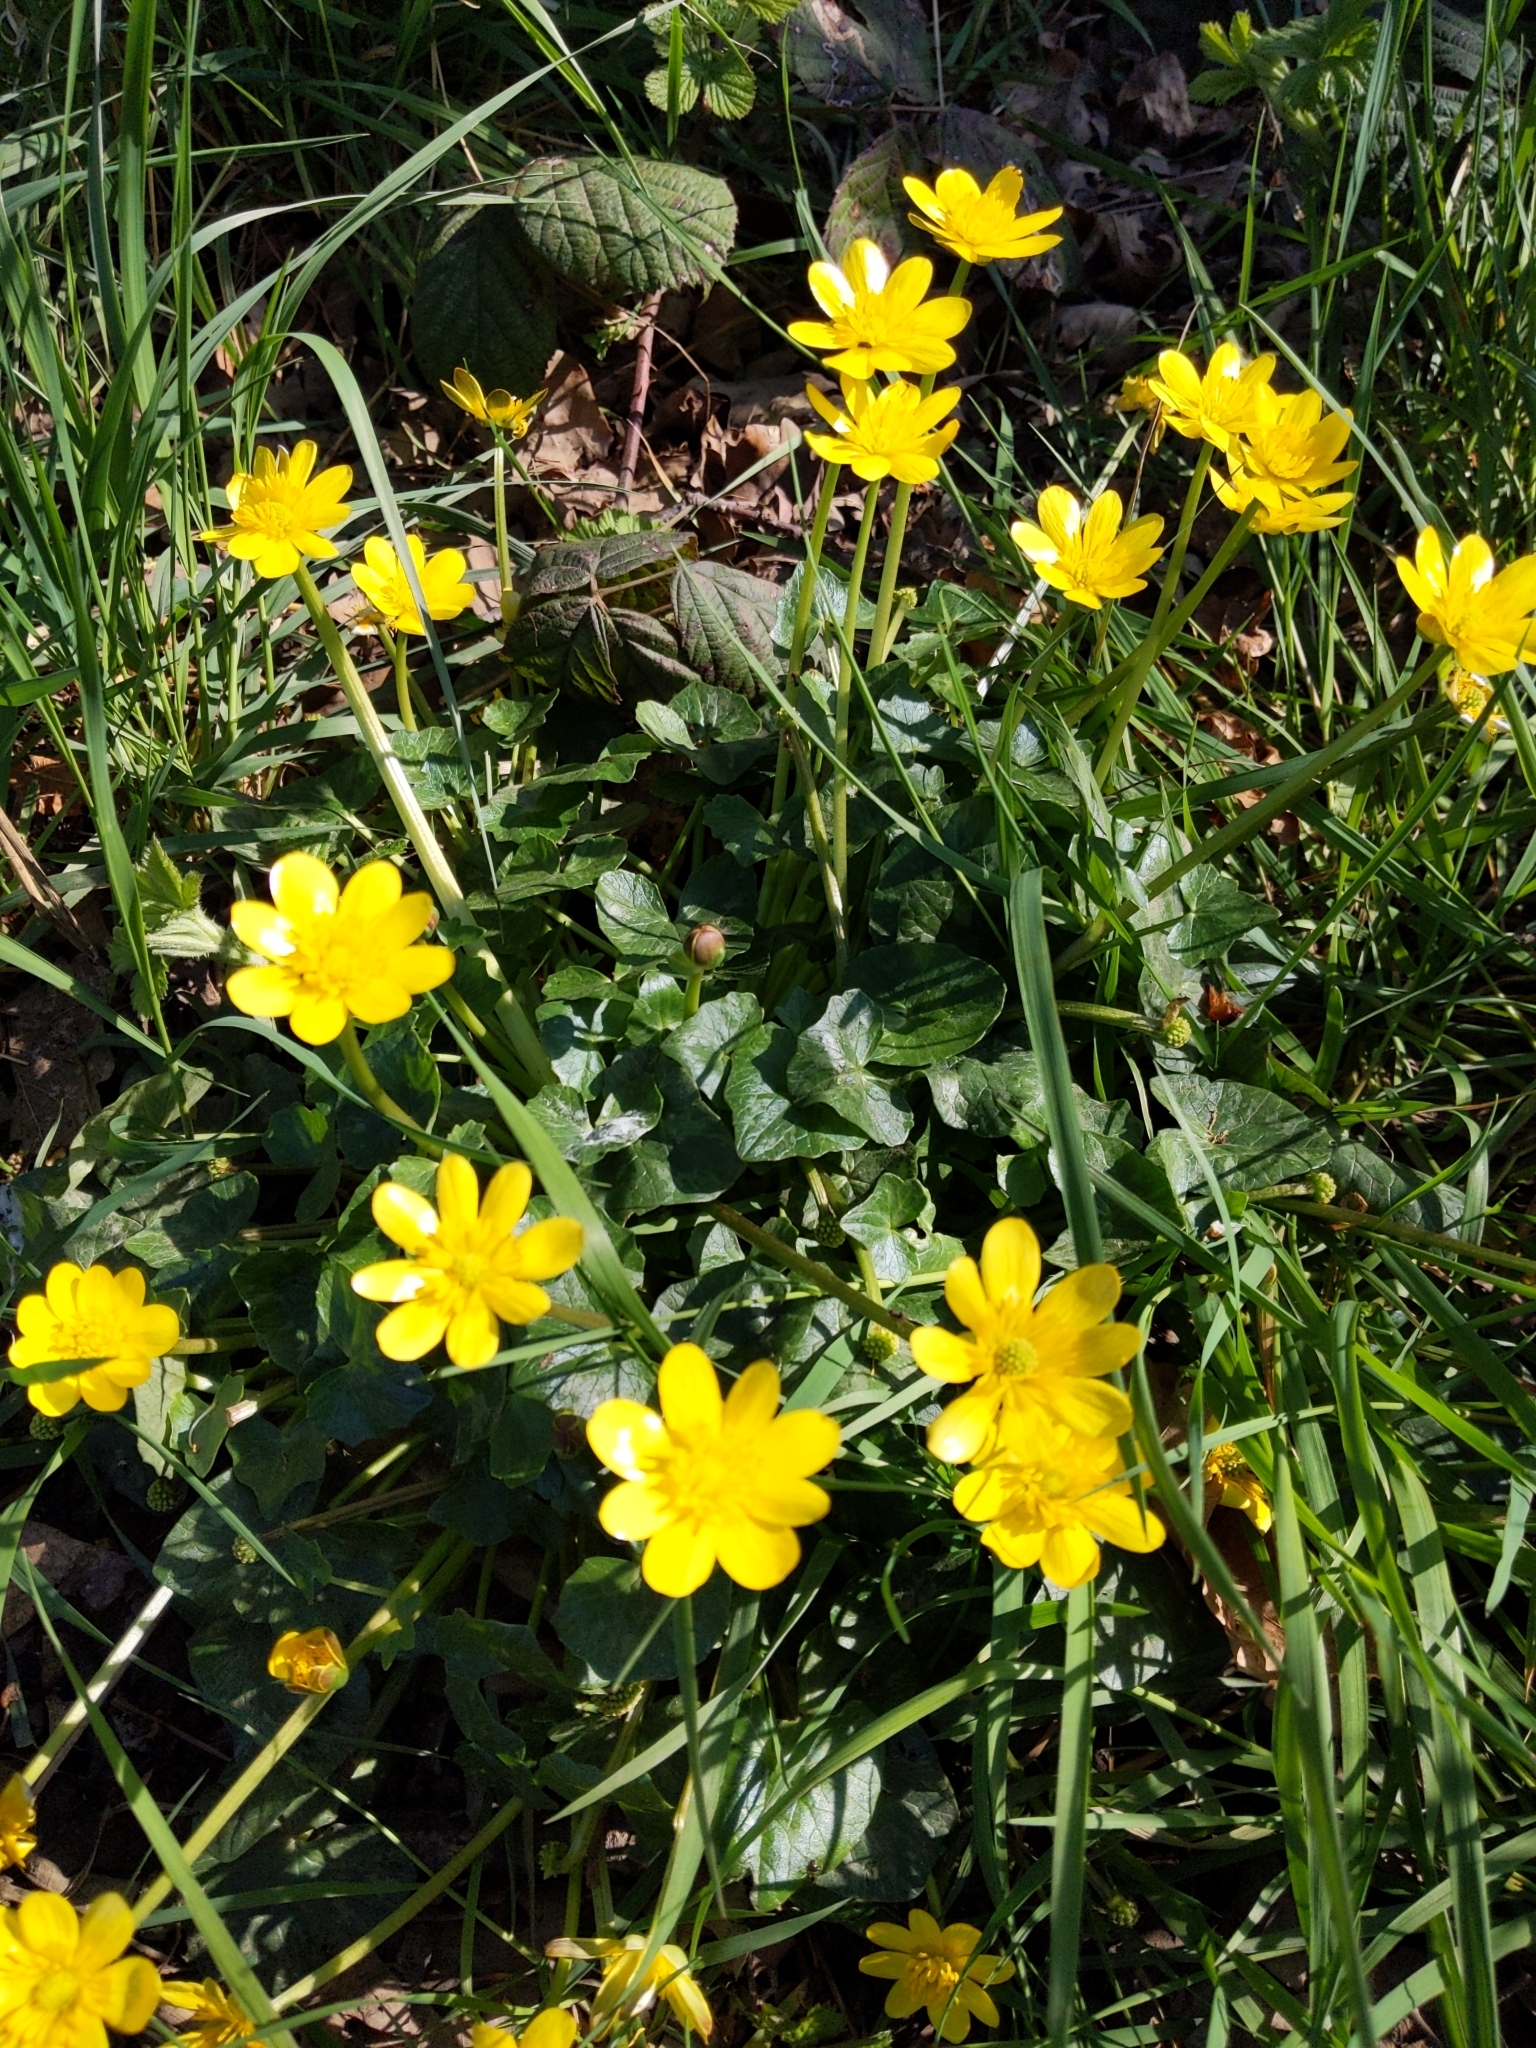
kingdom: Plantae
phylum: Tracheophyta
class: Magnoliopsida
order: Ranunculales
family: Ranunculaceae
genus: Ficaria
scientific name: Ficaria verna
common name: Lesser celandine
